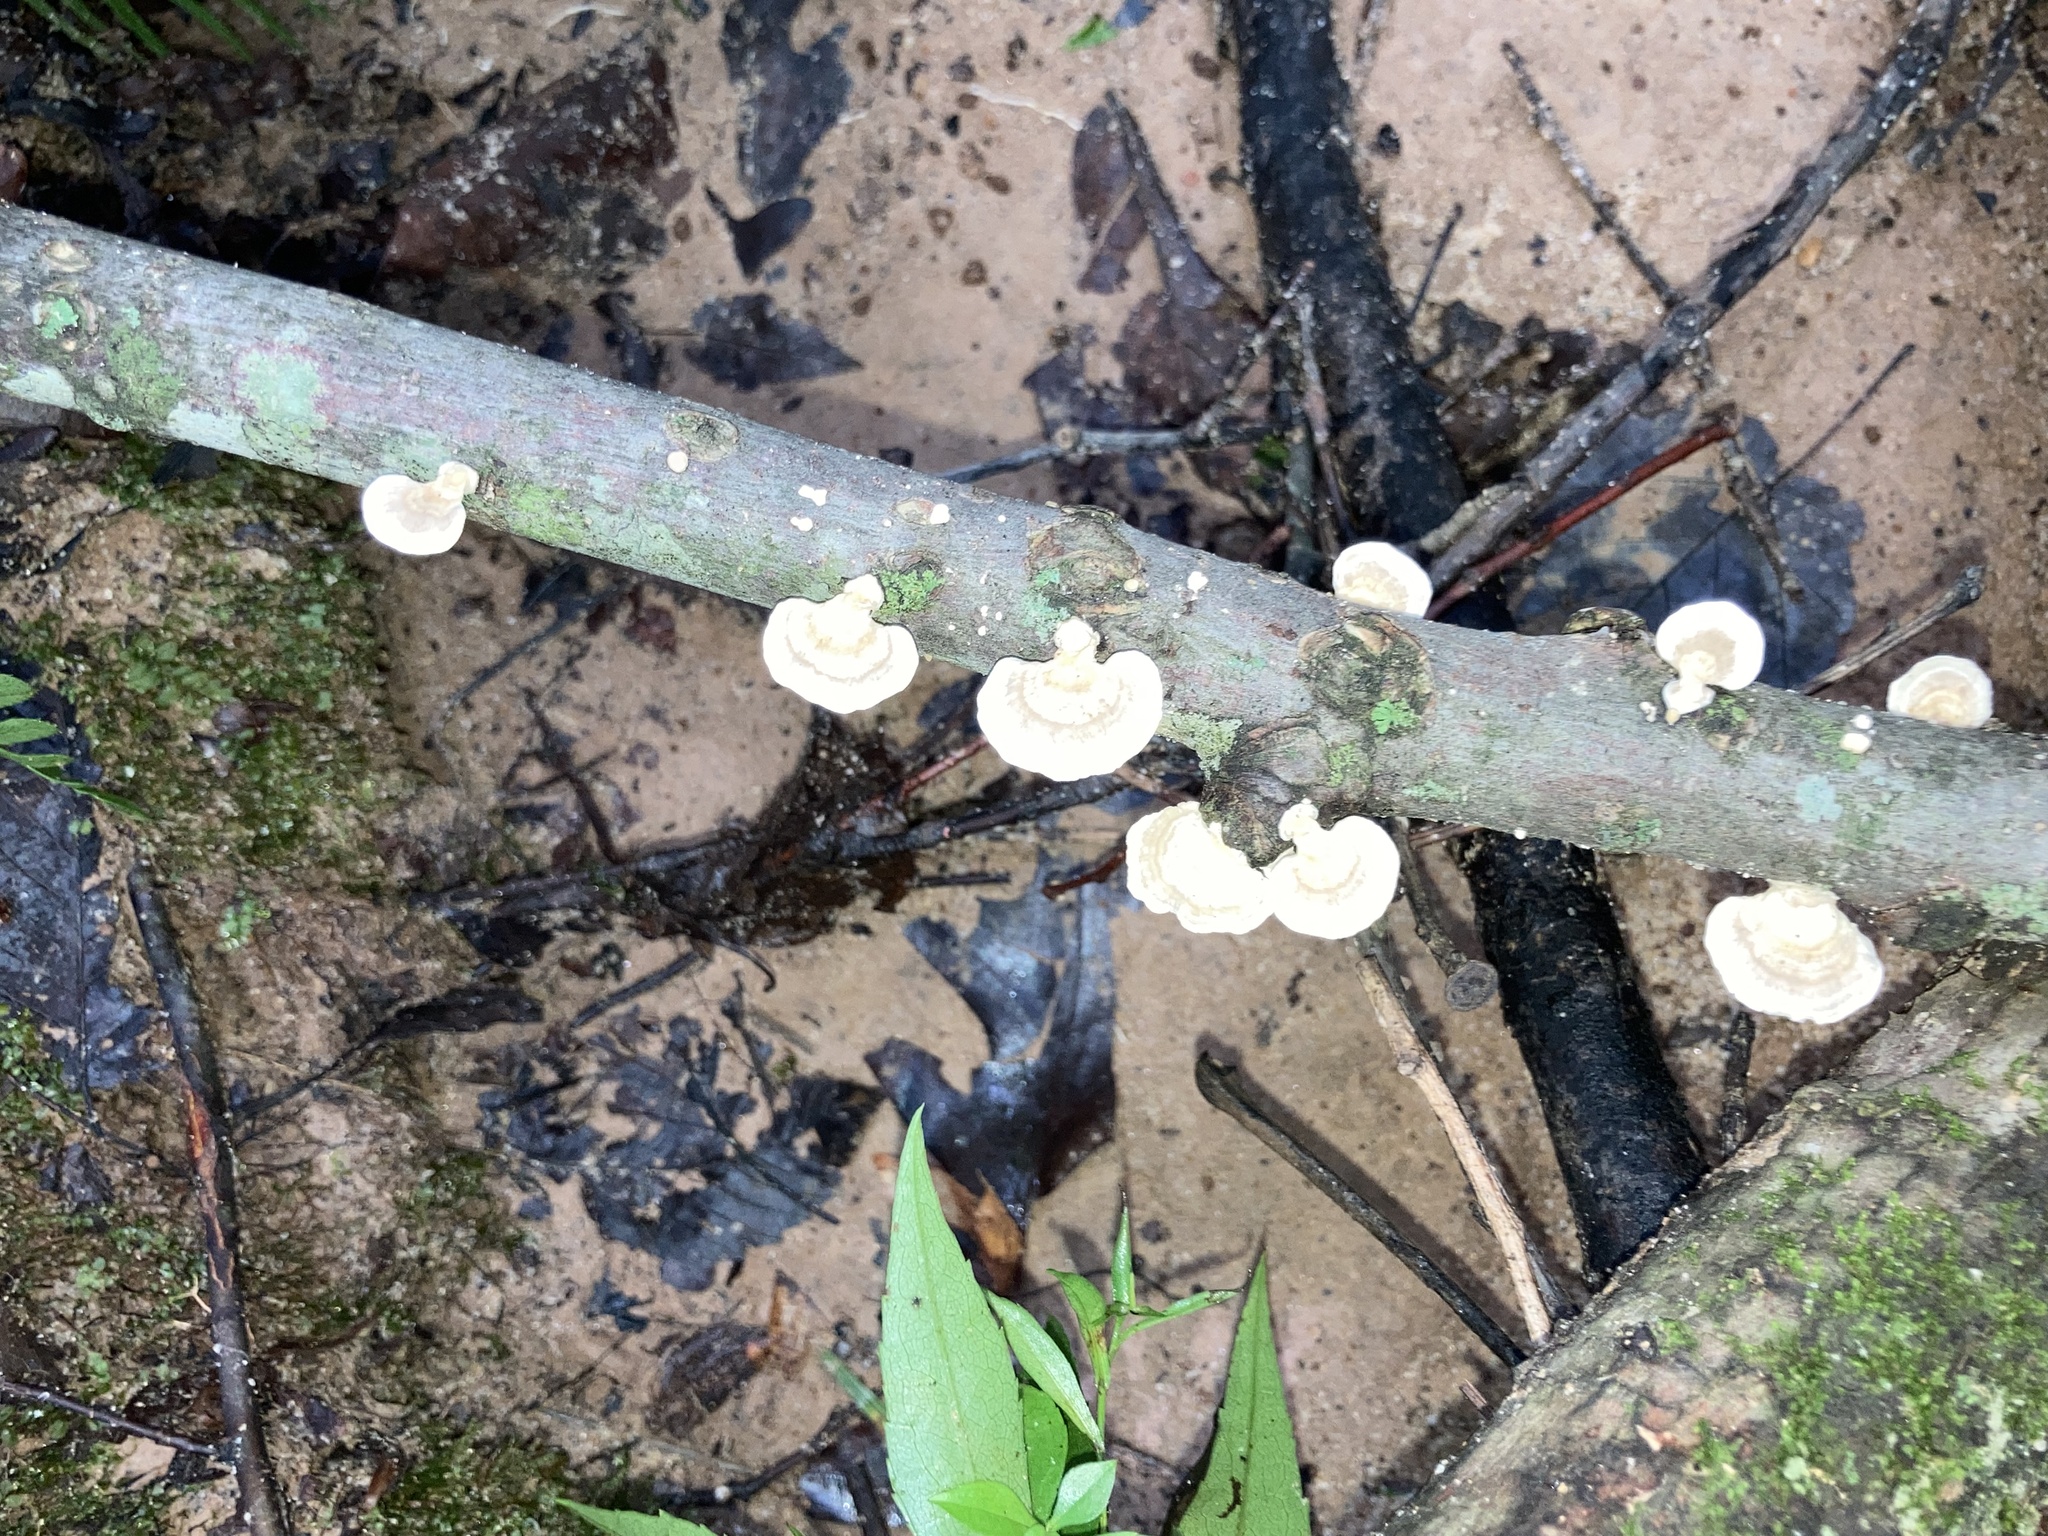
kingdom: Fungi
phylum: Basidiomycota
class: Agaricomycetes
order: Polyporales
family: Polyporaceae
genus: Poronidulus
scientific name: Poronidulus conchifer
